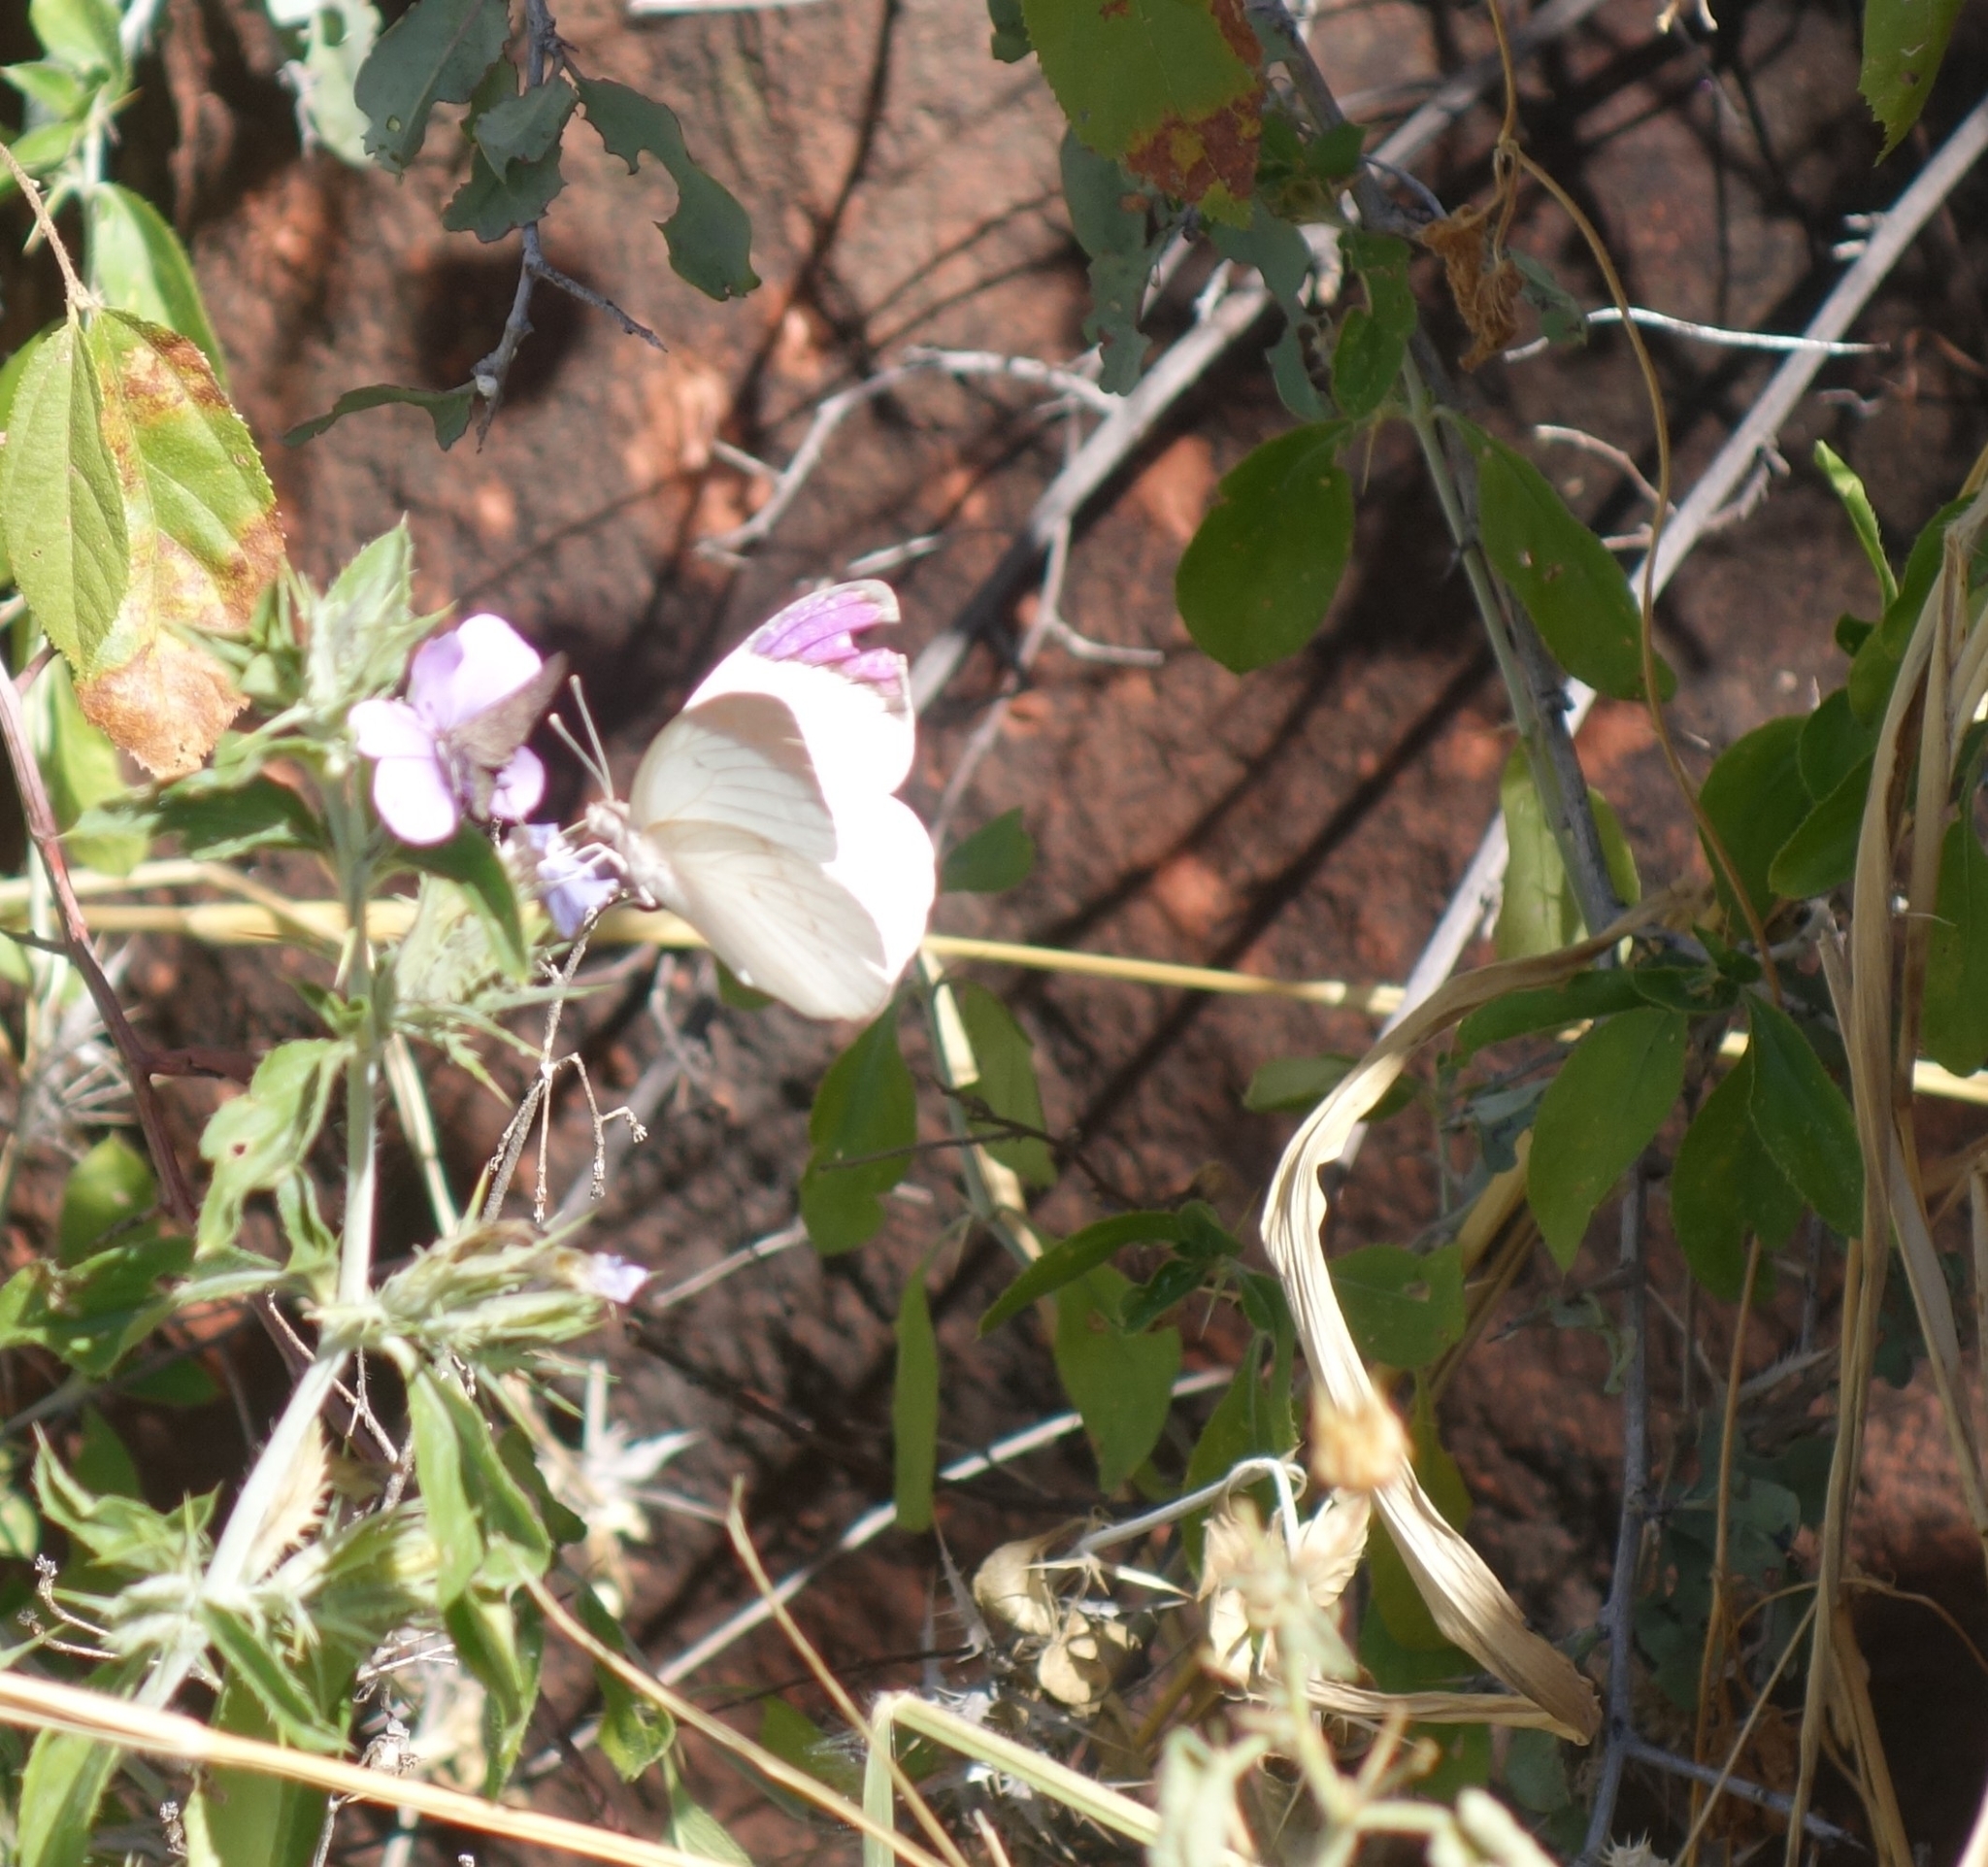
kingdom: Animalia
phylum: Arthropoda
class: Insecta
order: Lepidoptera
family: Pieridae
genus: Colotis
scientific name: Colotis regina
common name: Queen purple tip
